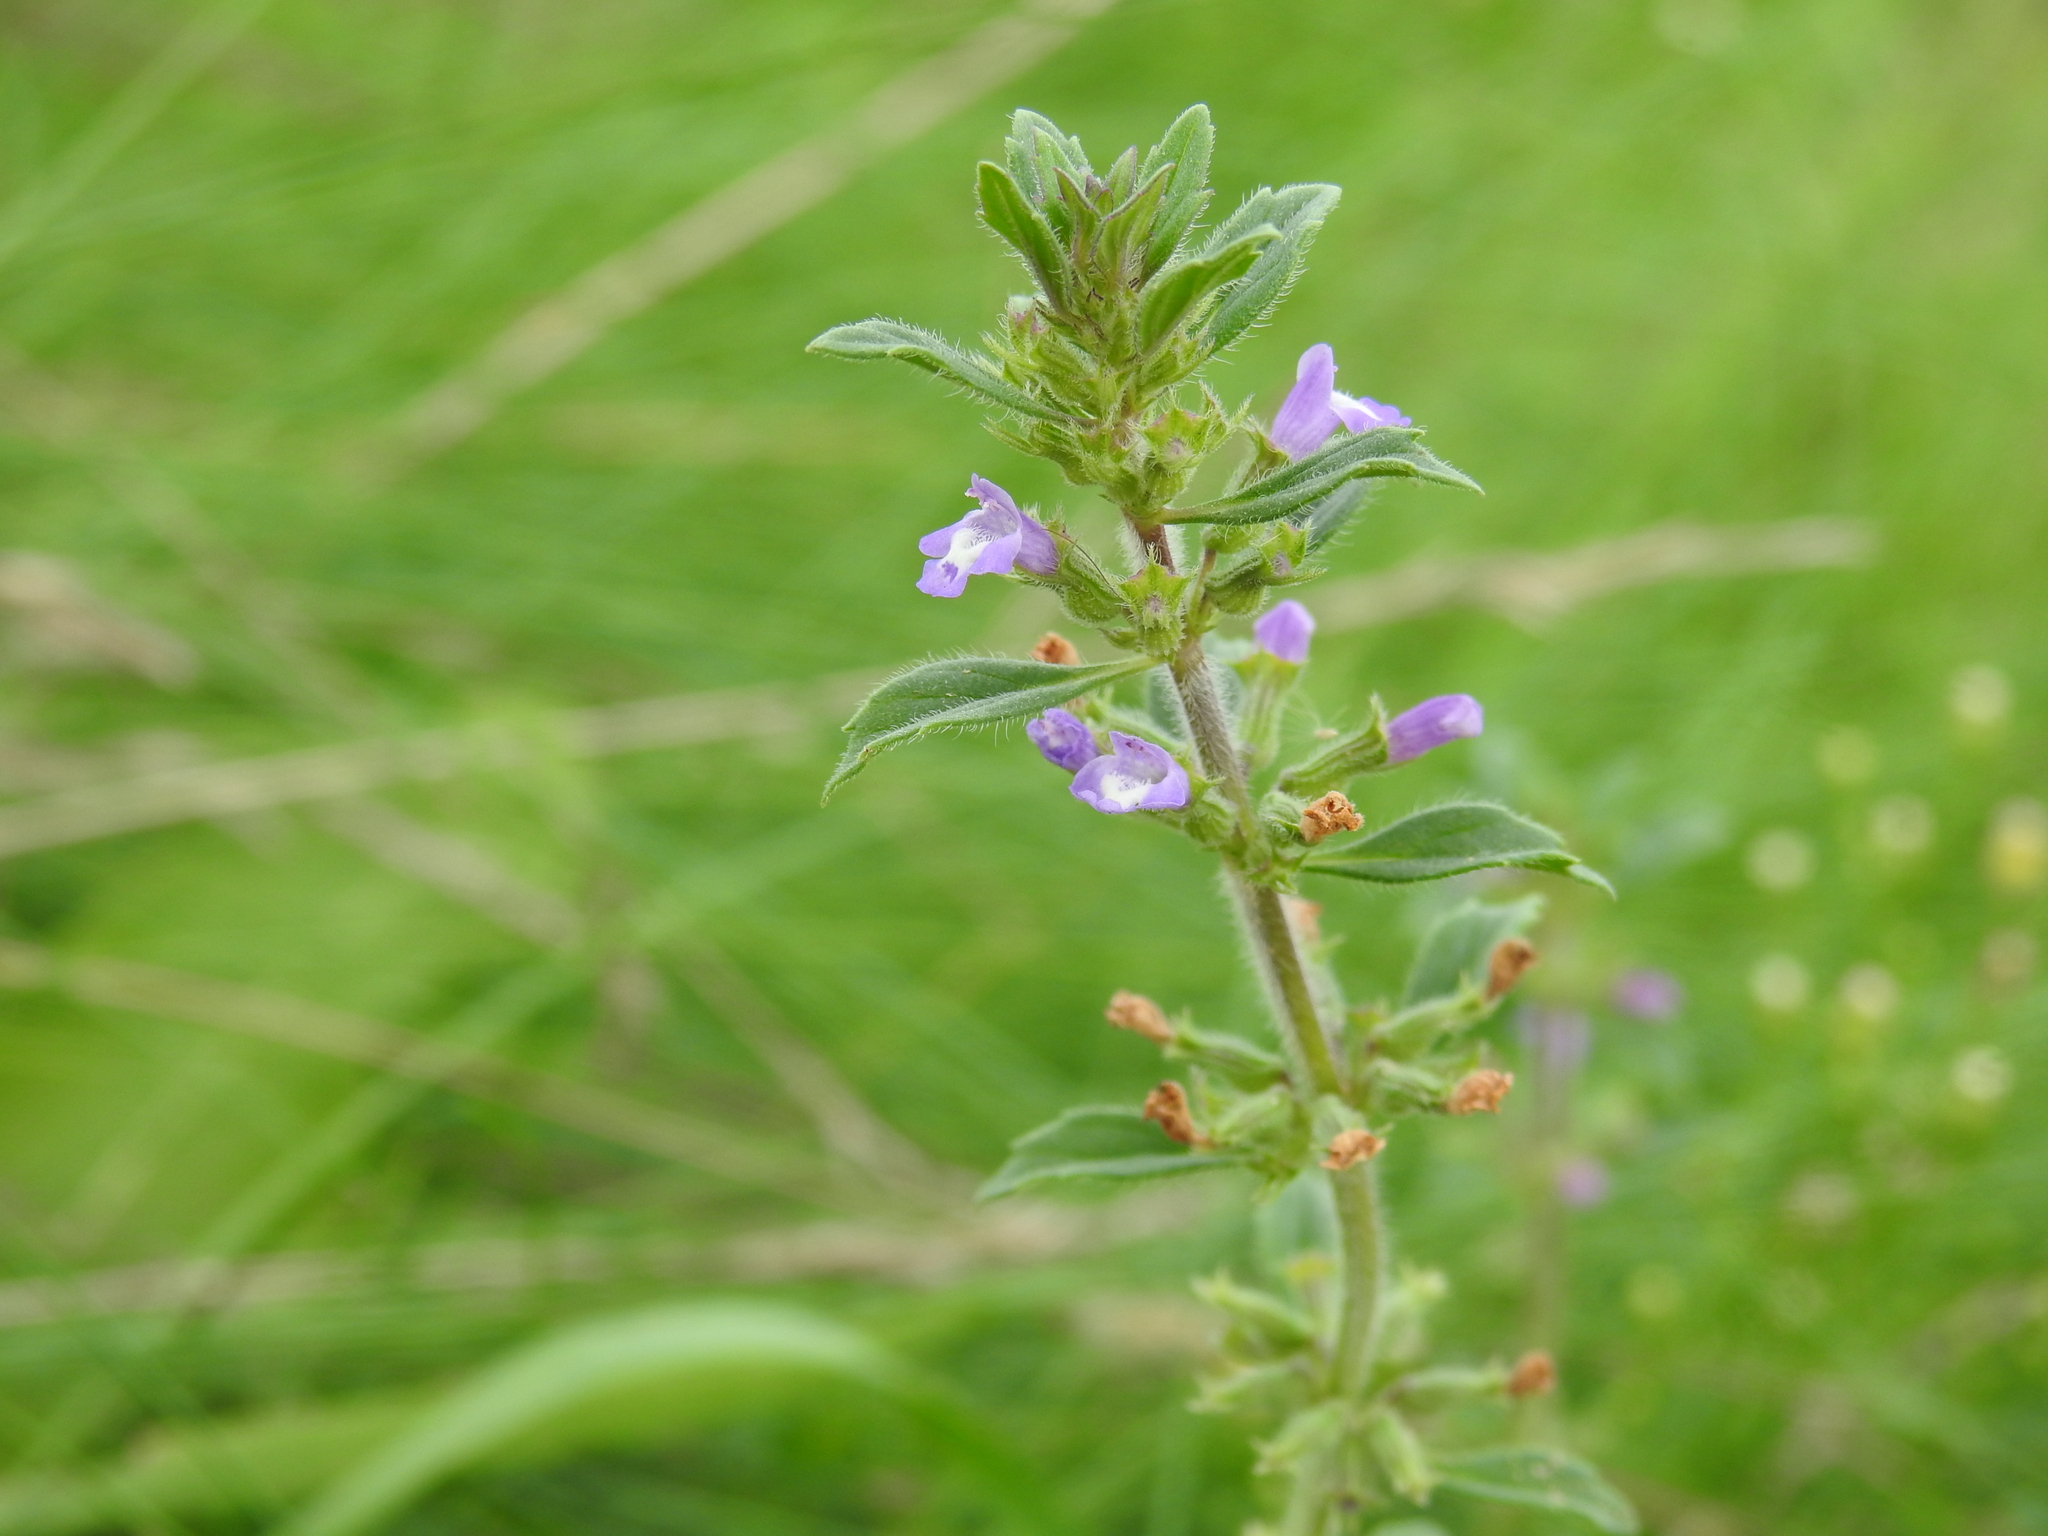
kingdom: Plantae
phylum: Tracheophyta
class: Magnoliopsida
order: Lamiales
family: Lamiaceae
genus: Clinopodium
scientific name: Clinopodium acinos
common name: Basil thyme
